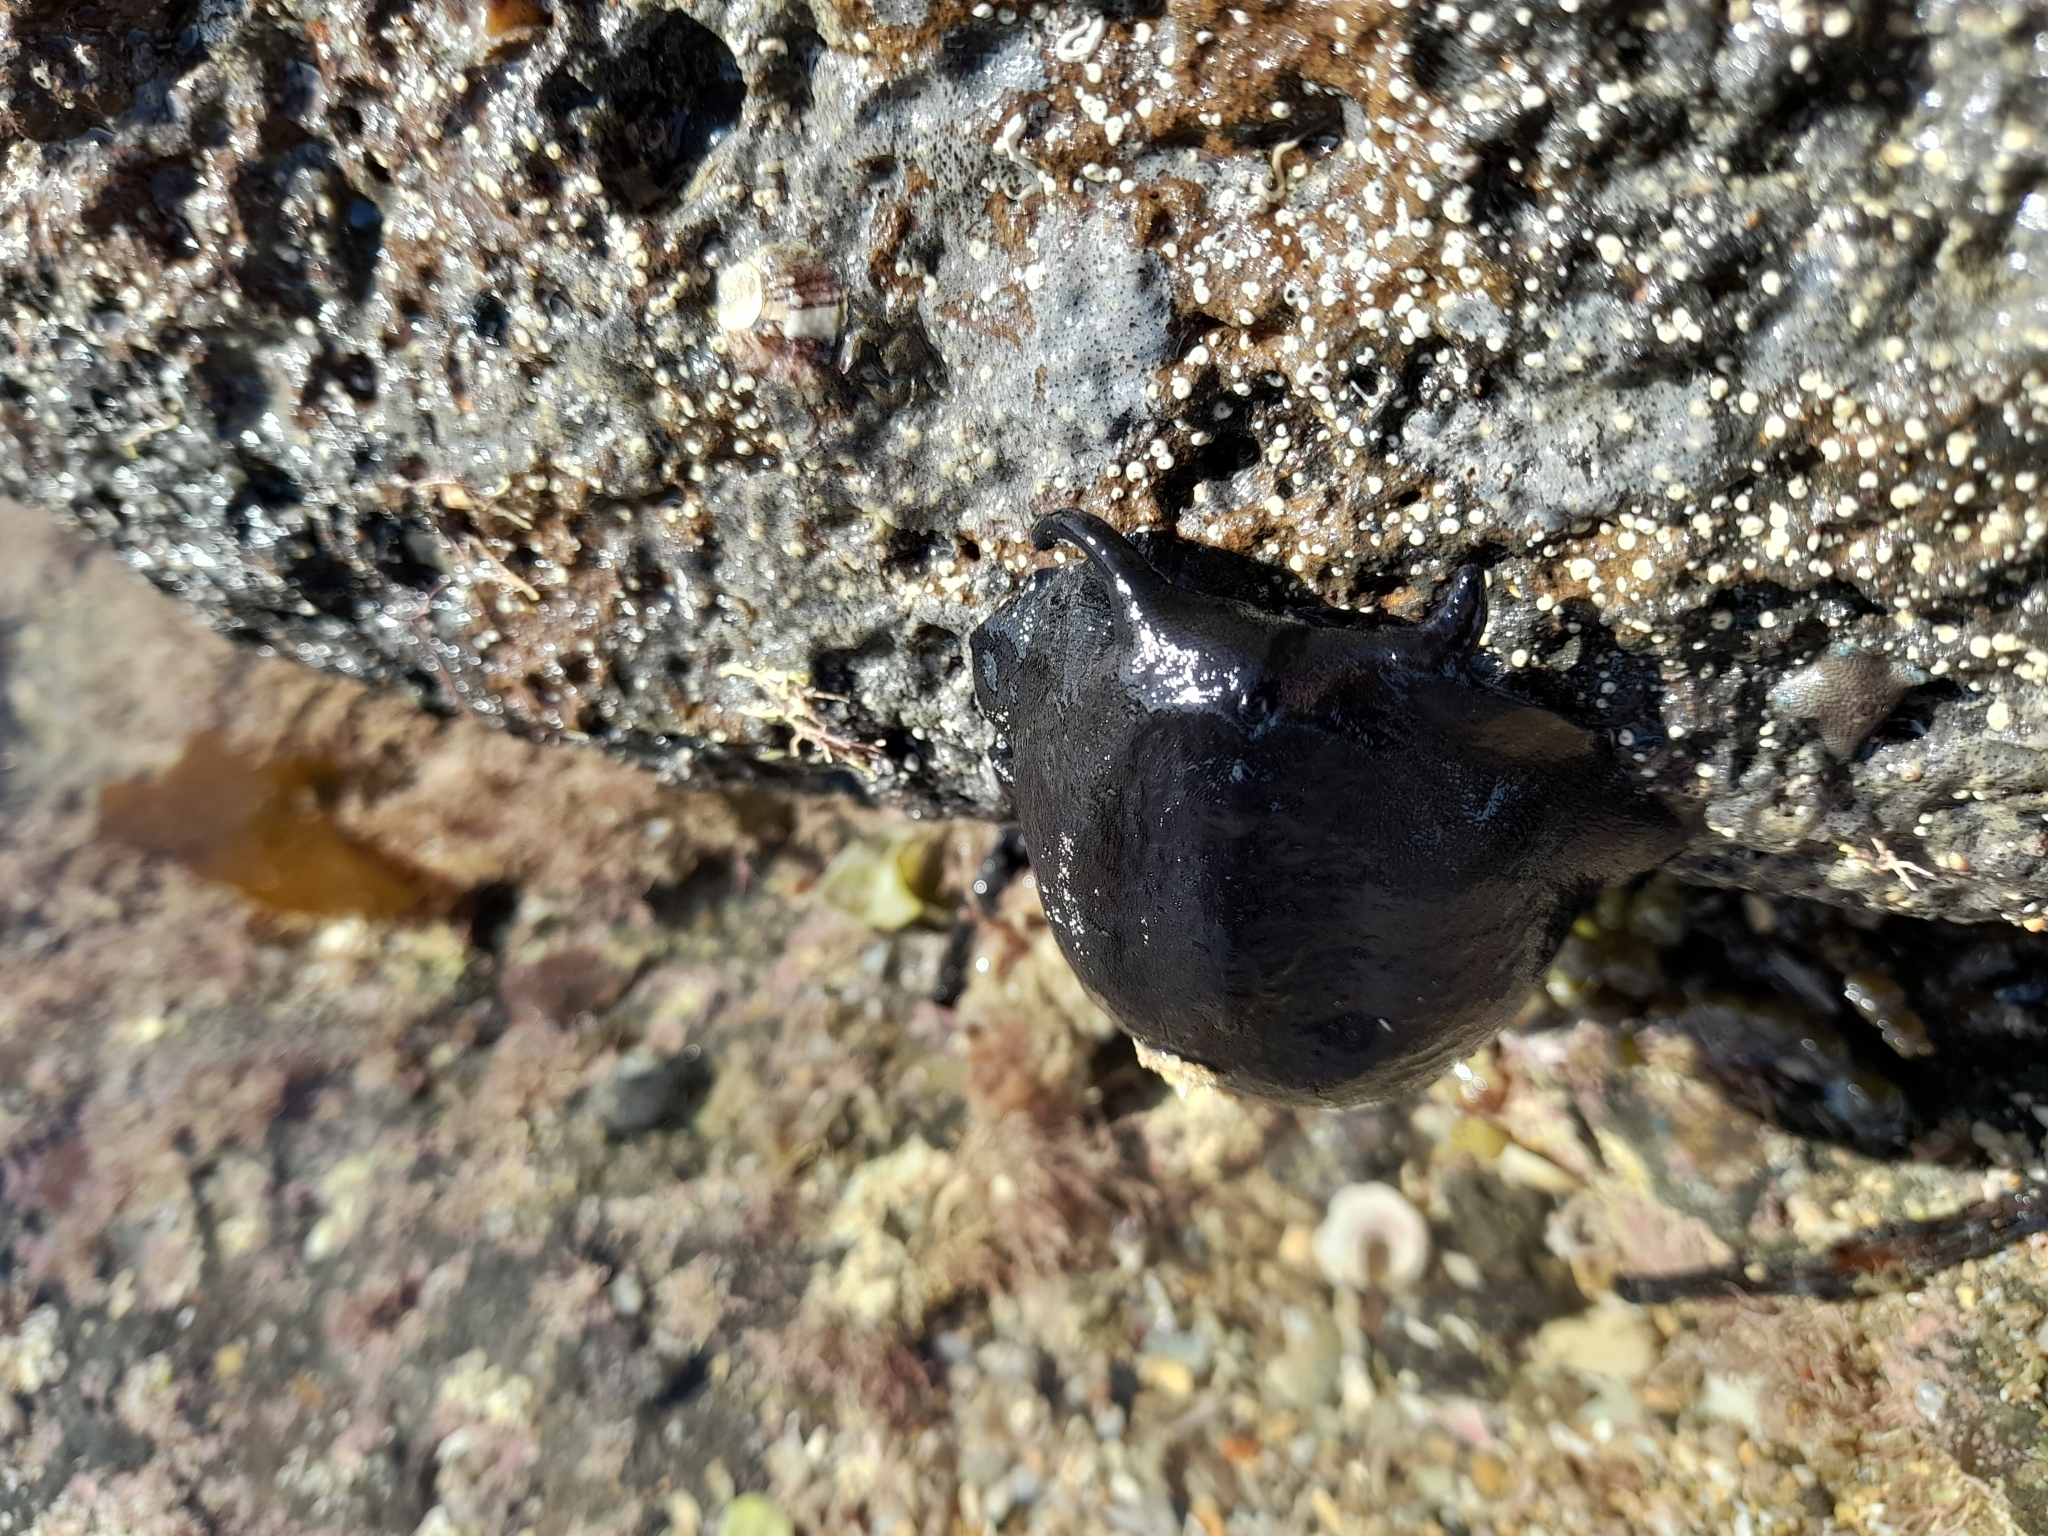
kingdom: Animalia
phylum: Mollusca
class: Gastropoda
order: Lepetellida
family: Fissurellidae
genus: Scutus
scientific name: Scutus breviculus
